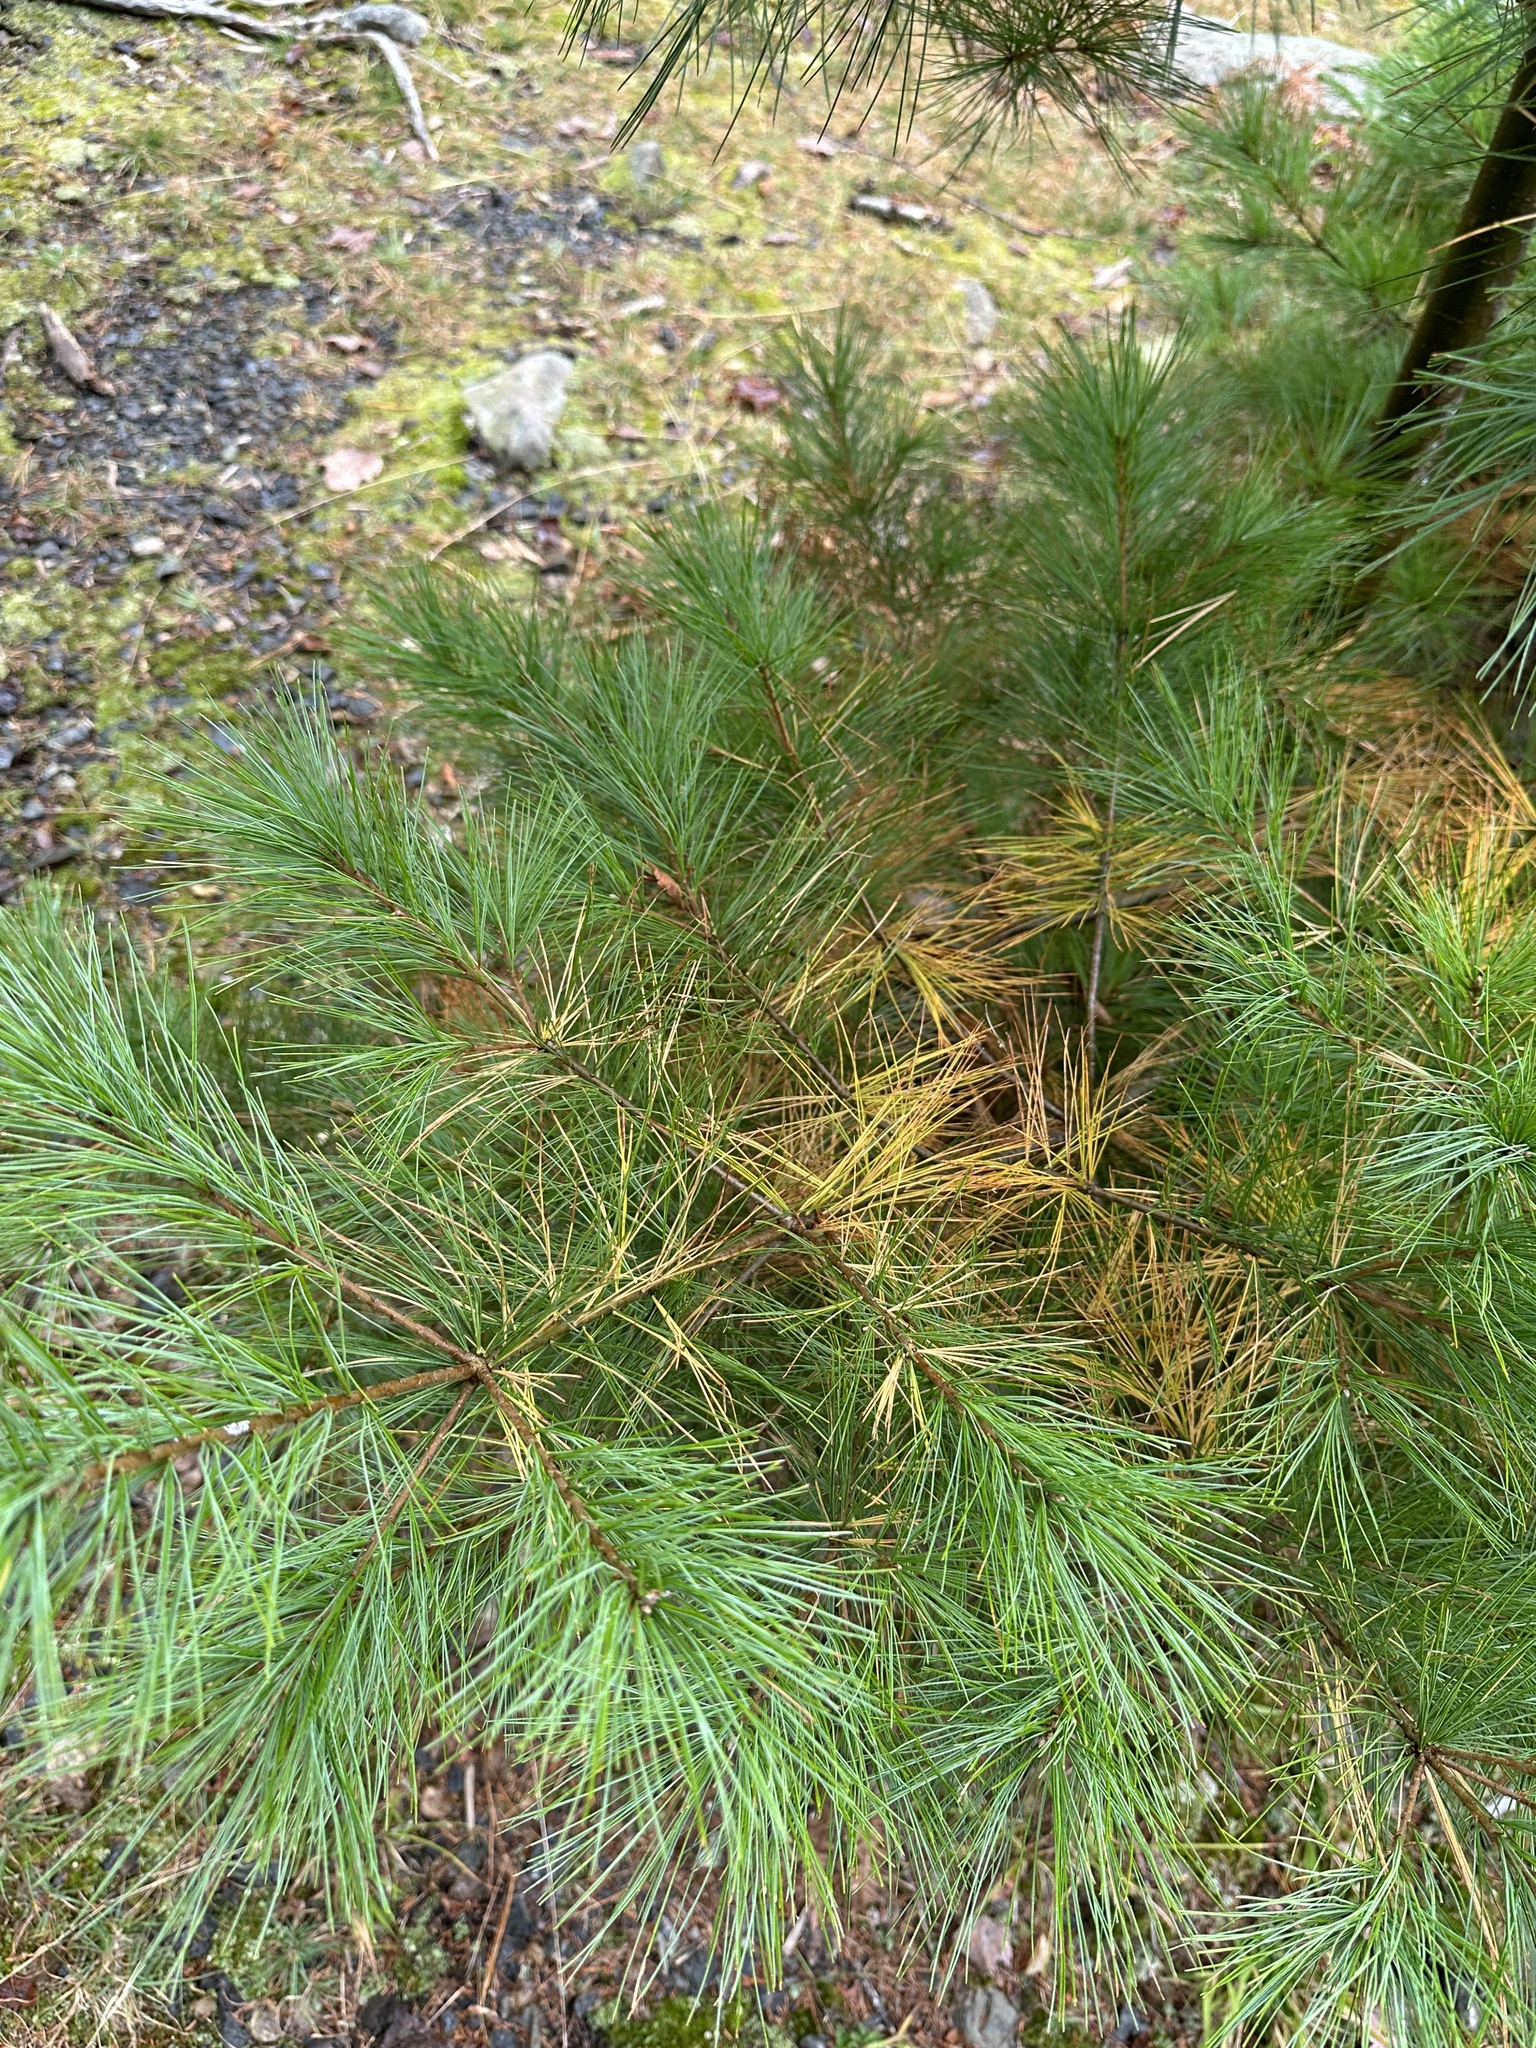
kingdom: Plantae
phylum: Tracheophyta
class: Pinopsida
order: Pinales
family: Pinaceae
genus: Pinus
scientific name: Pinus strobus
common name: Weymouth pine
